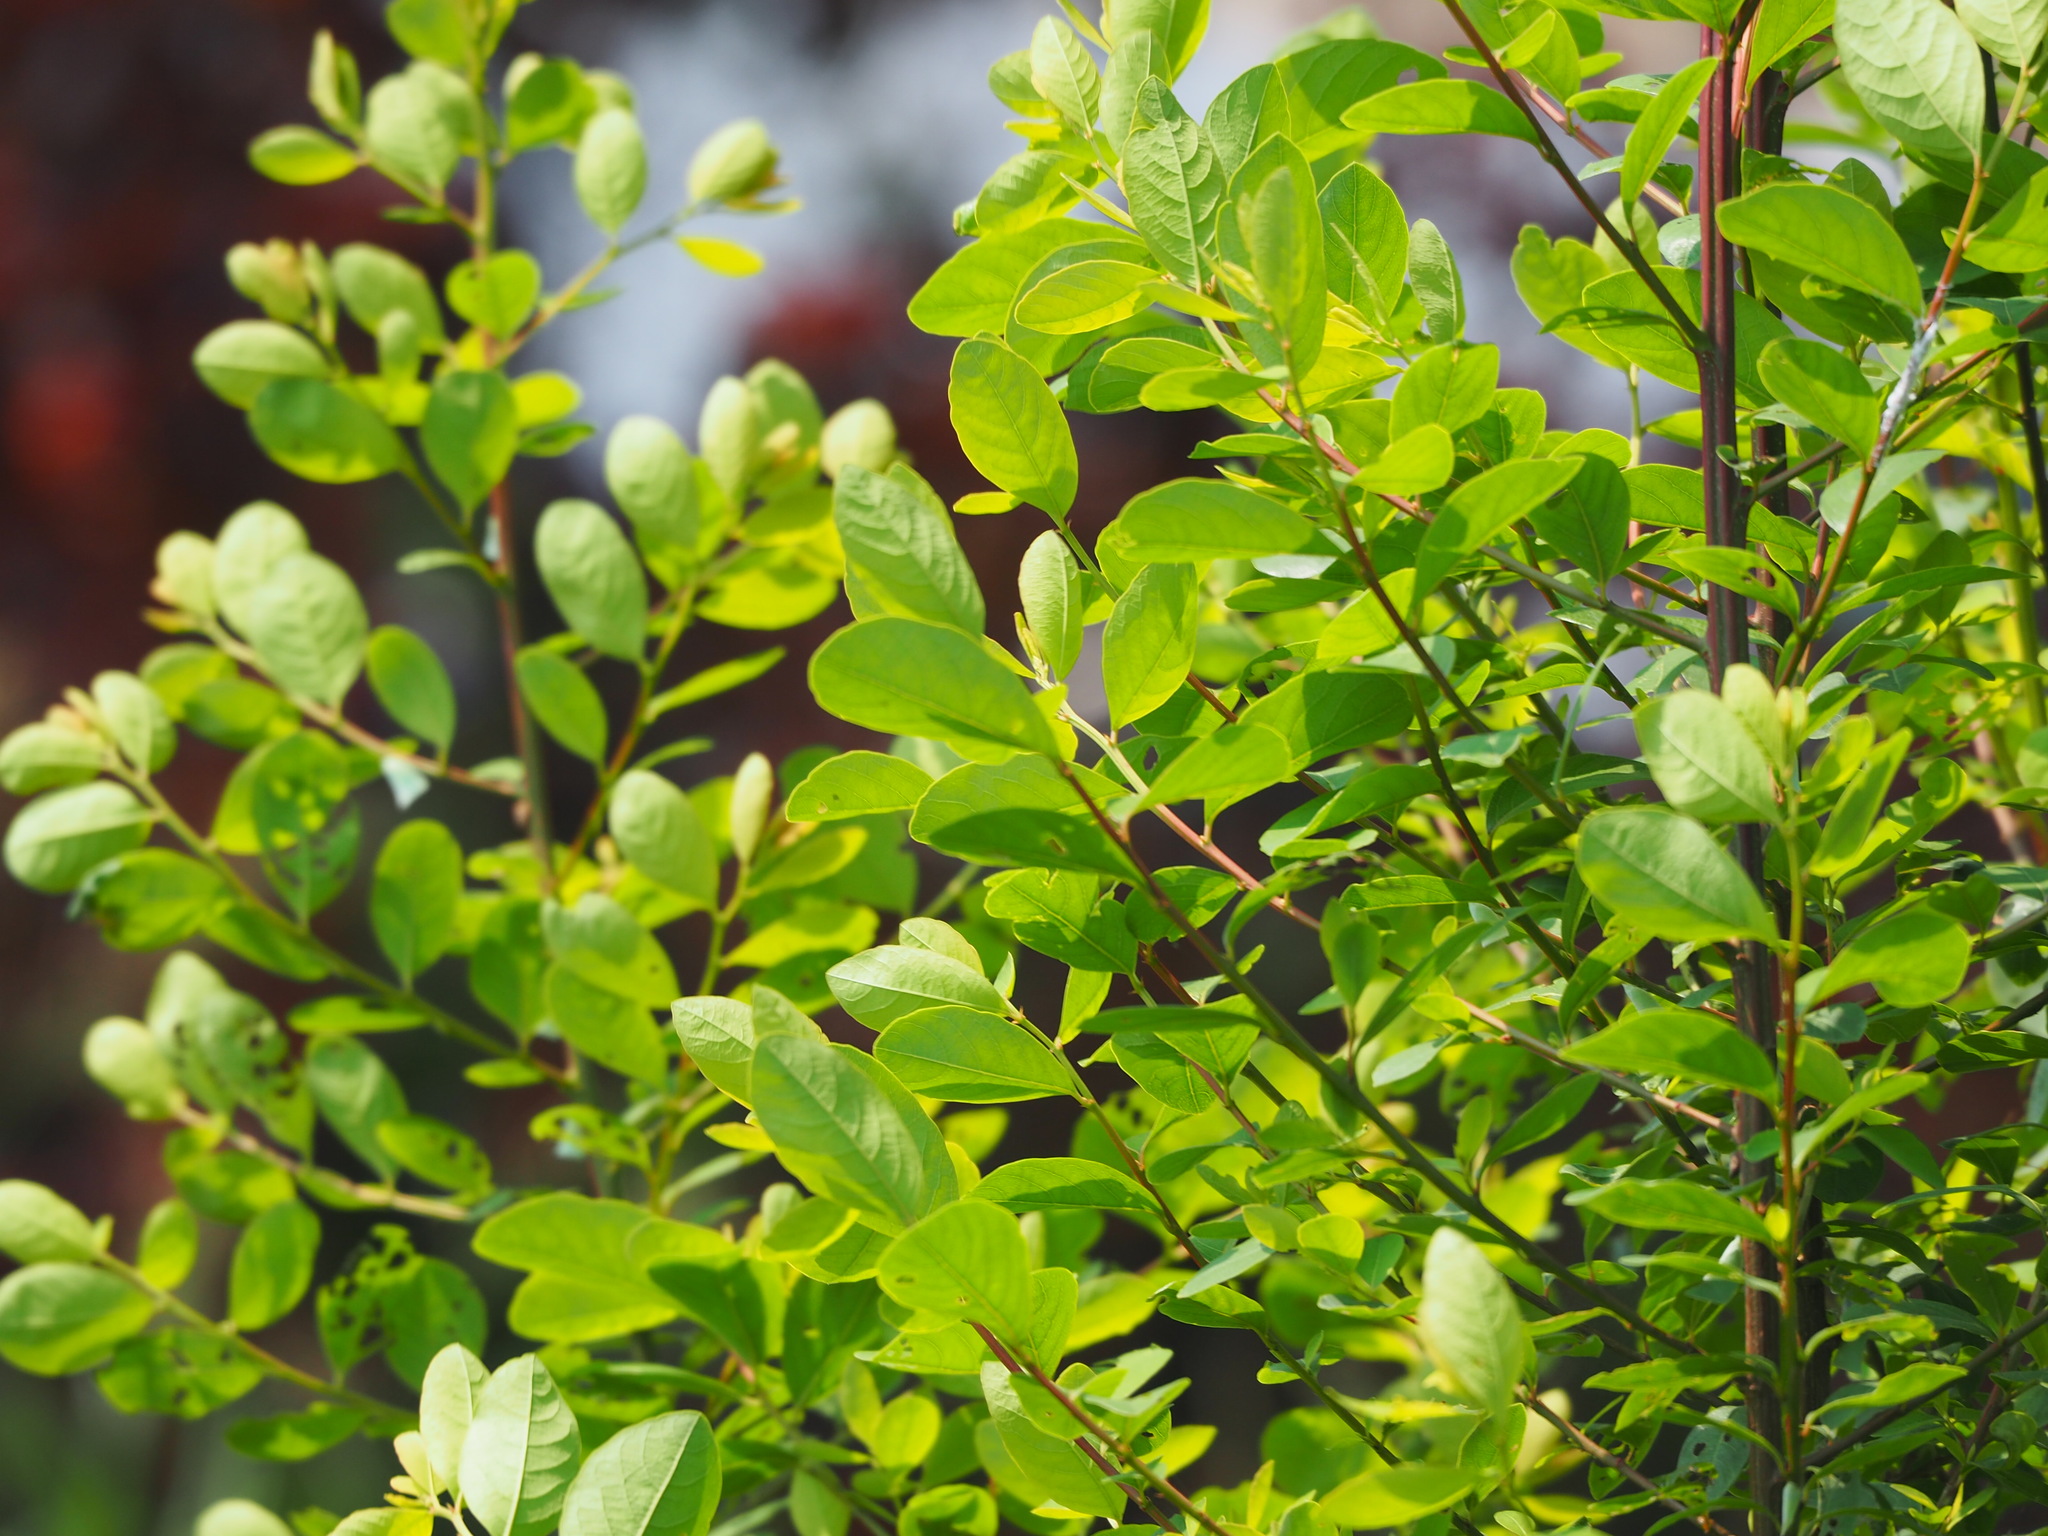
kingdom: Plantae
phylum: Tracheophyta
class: Magnoliopsida
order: Malpighiales
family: Phyllanthaceae
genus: Flueggea
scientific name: Flueggea virosa
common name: Common bushweed
